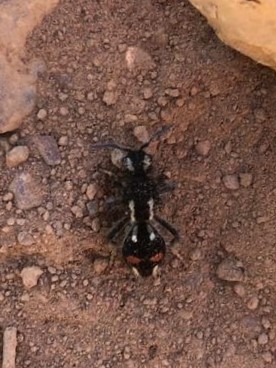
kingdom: Animalia
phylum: Arthropoda
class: Insecta
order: Hymenoptera
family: Mutillidae
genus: Hoplomutilla
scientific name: Hoplomutilla myops
